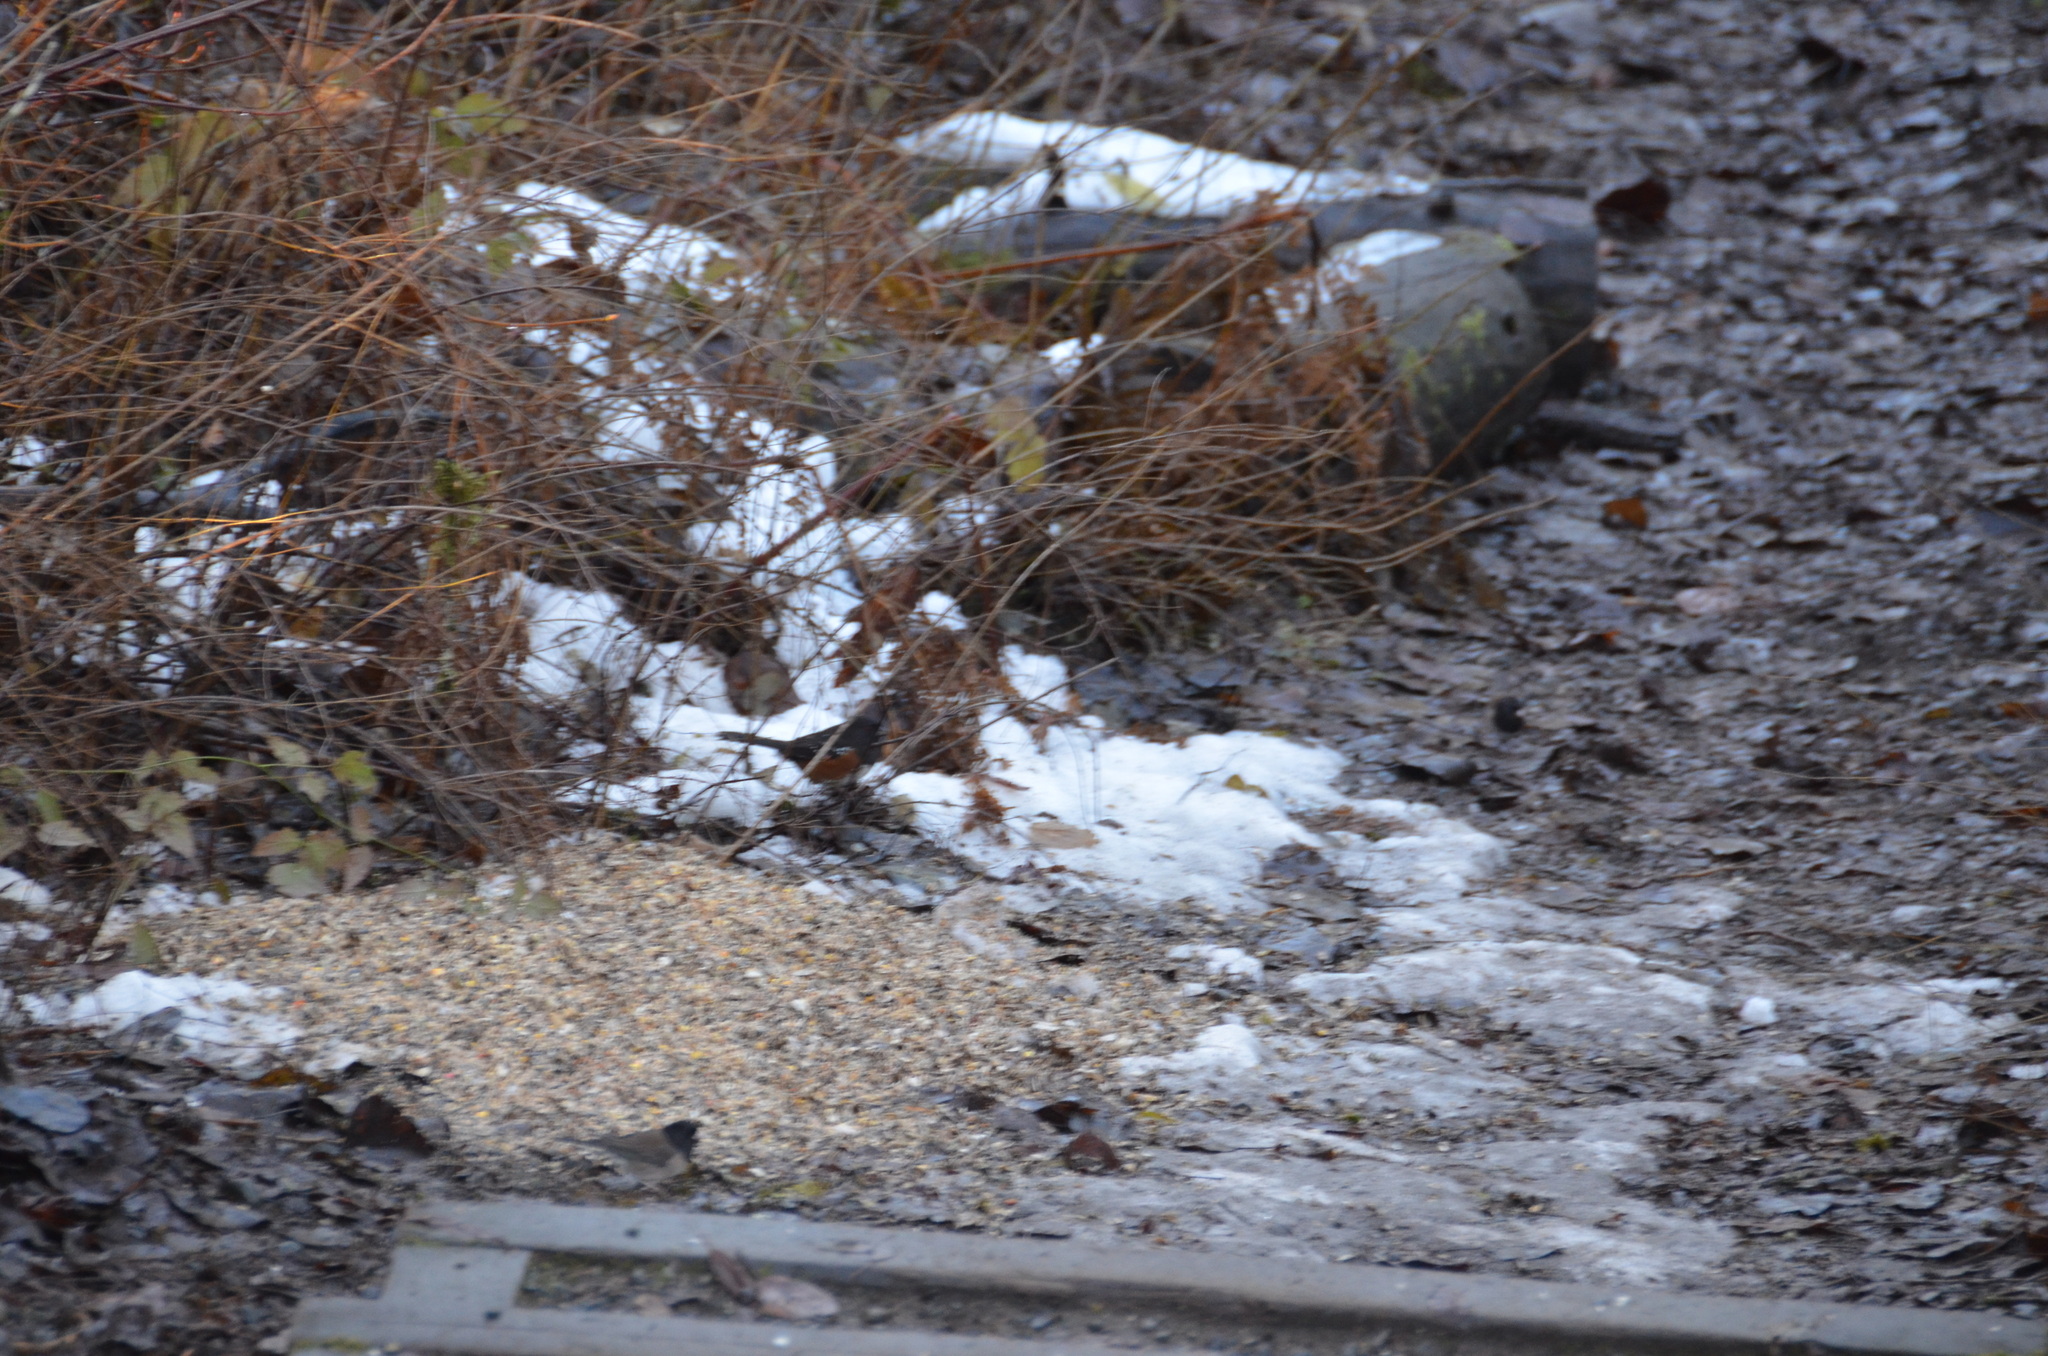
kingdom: Animalia
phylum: Chordata
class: Aves
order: Passeriformes
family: Passerellidae
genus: Junco
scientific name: Junco hyemalis
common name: Dark-eyed junco
